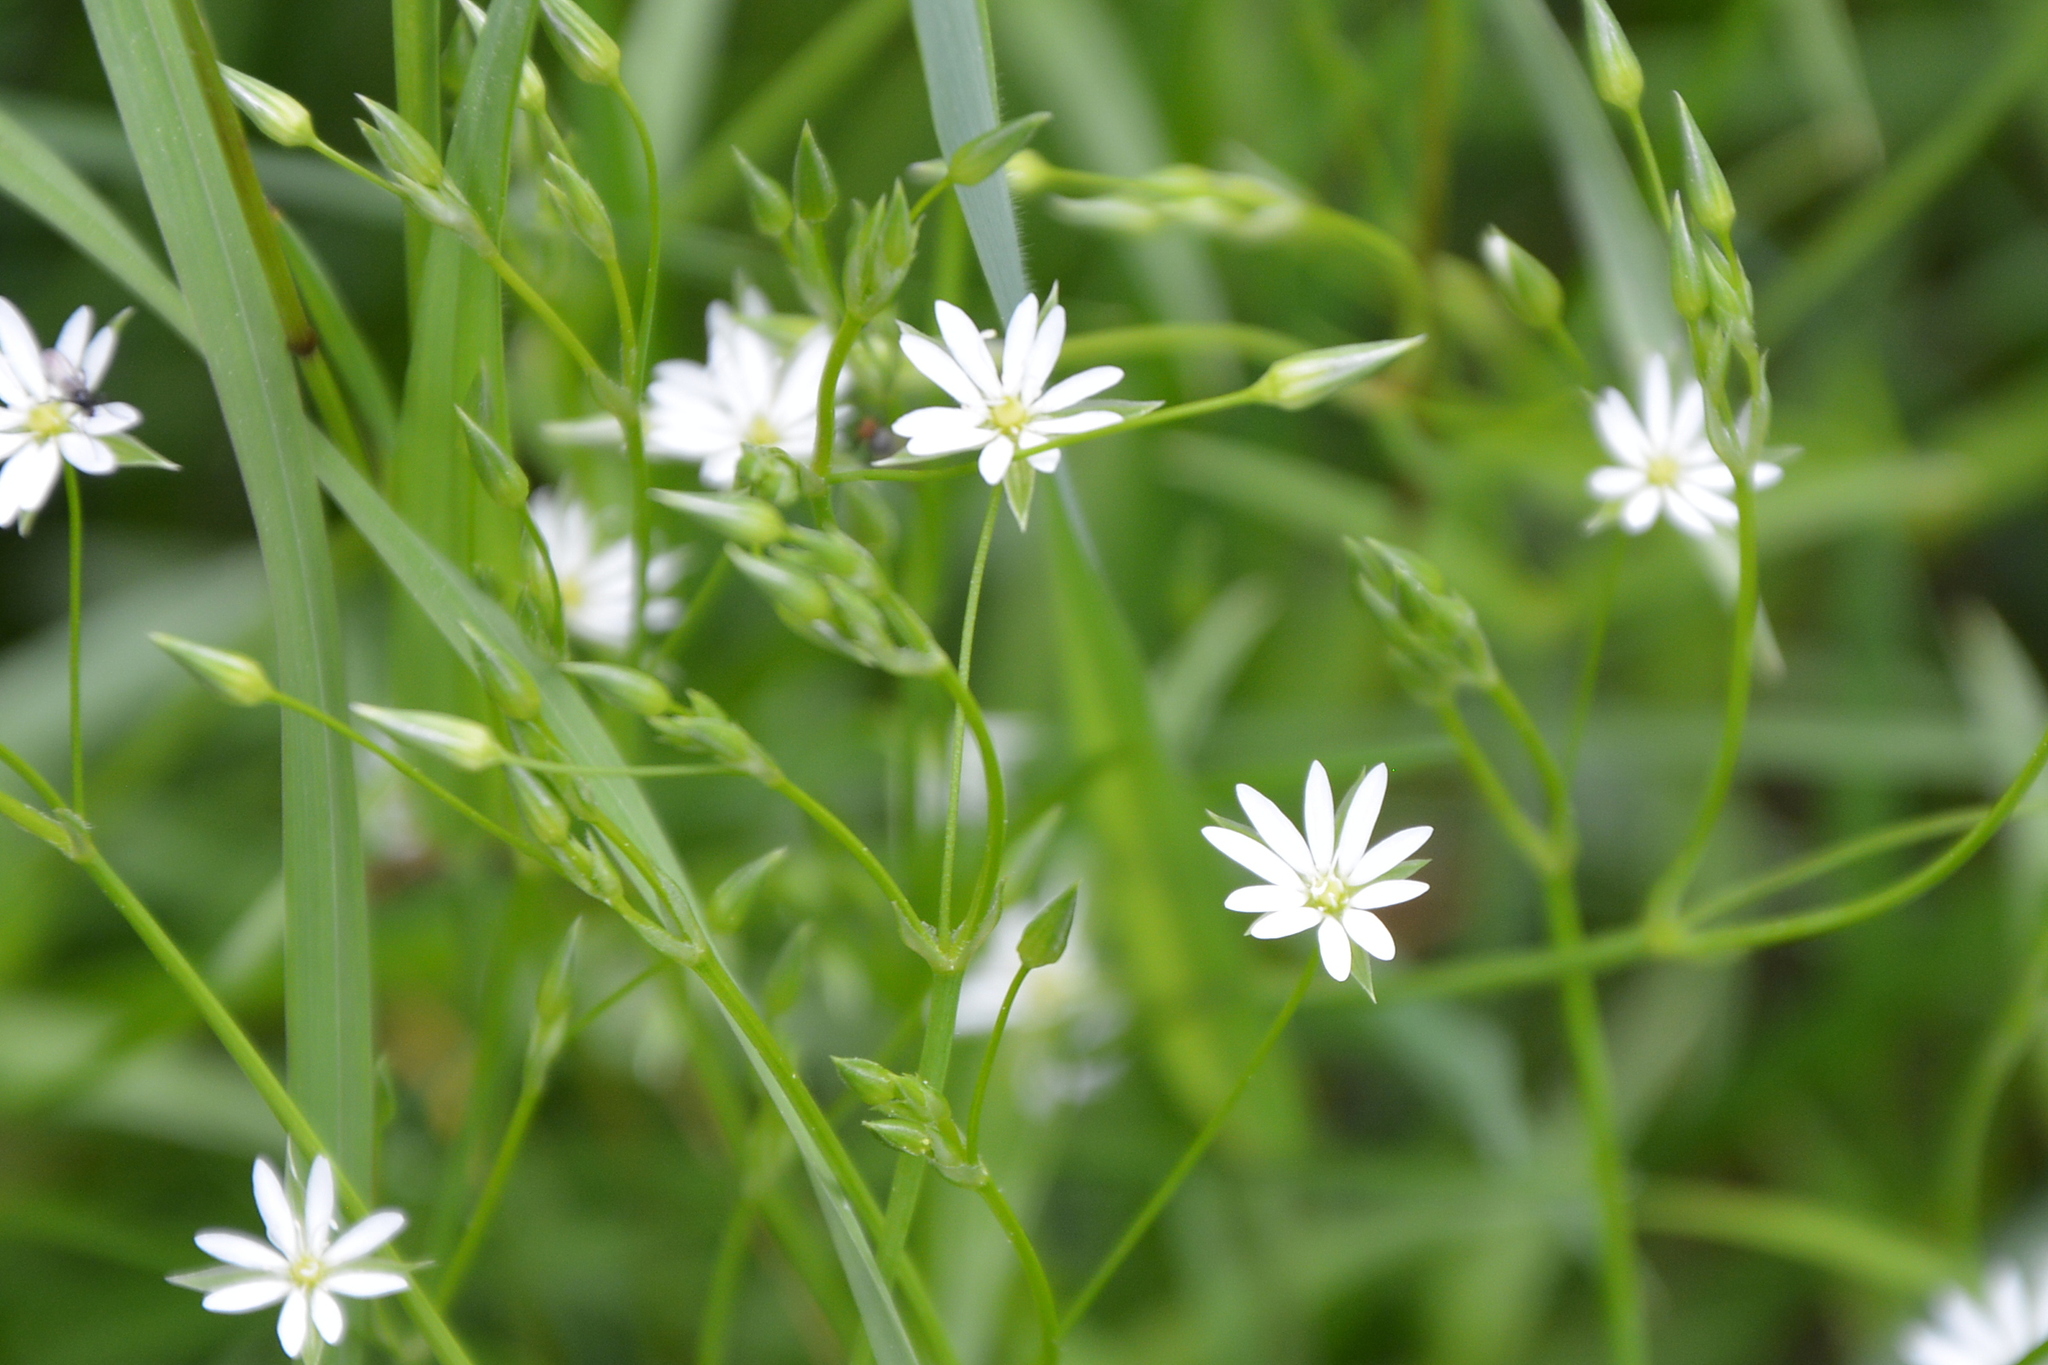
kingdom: Plantae
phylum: Tracheophyta
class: Magnoliopsida
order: Caryophyllales
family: Caryophyllaceae
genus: Stellaria
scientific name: Stellaria graminea
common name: Grass-like starwort
